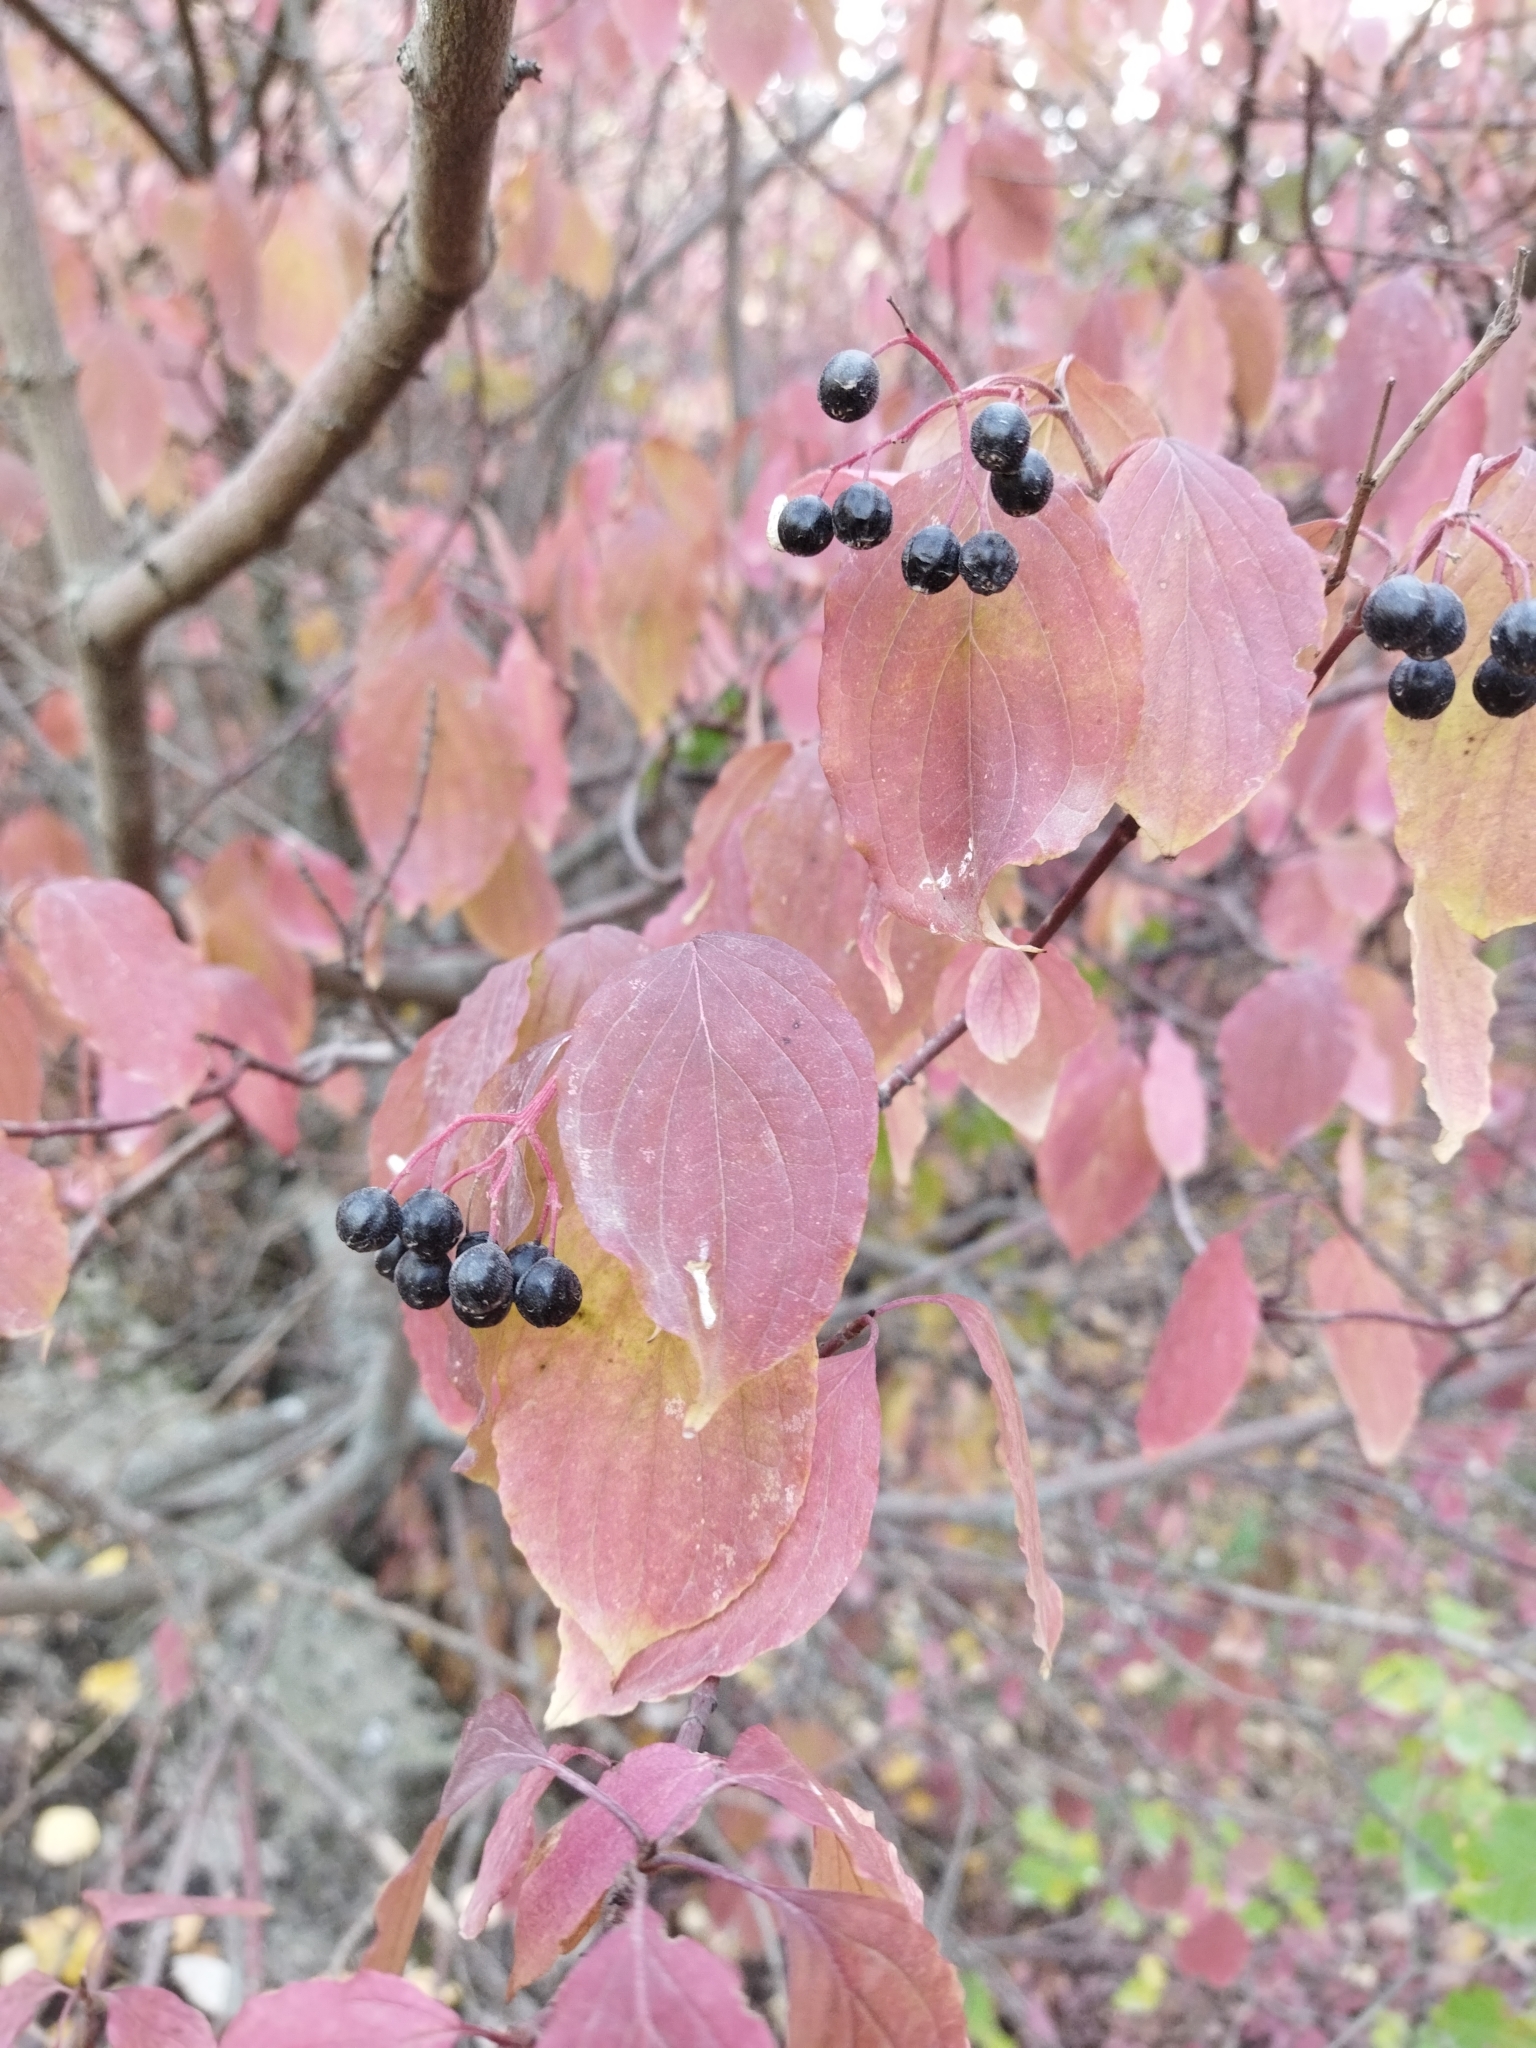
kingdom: Plantae
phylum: Tracheophyta
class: Magnoliopsida
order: Cornales
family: Cornaceae
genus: Cornus
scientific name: Cornus sanguinea
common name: Dogwood
